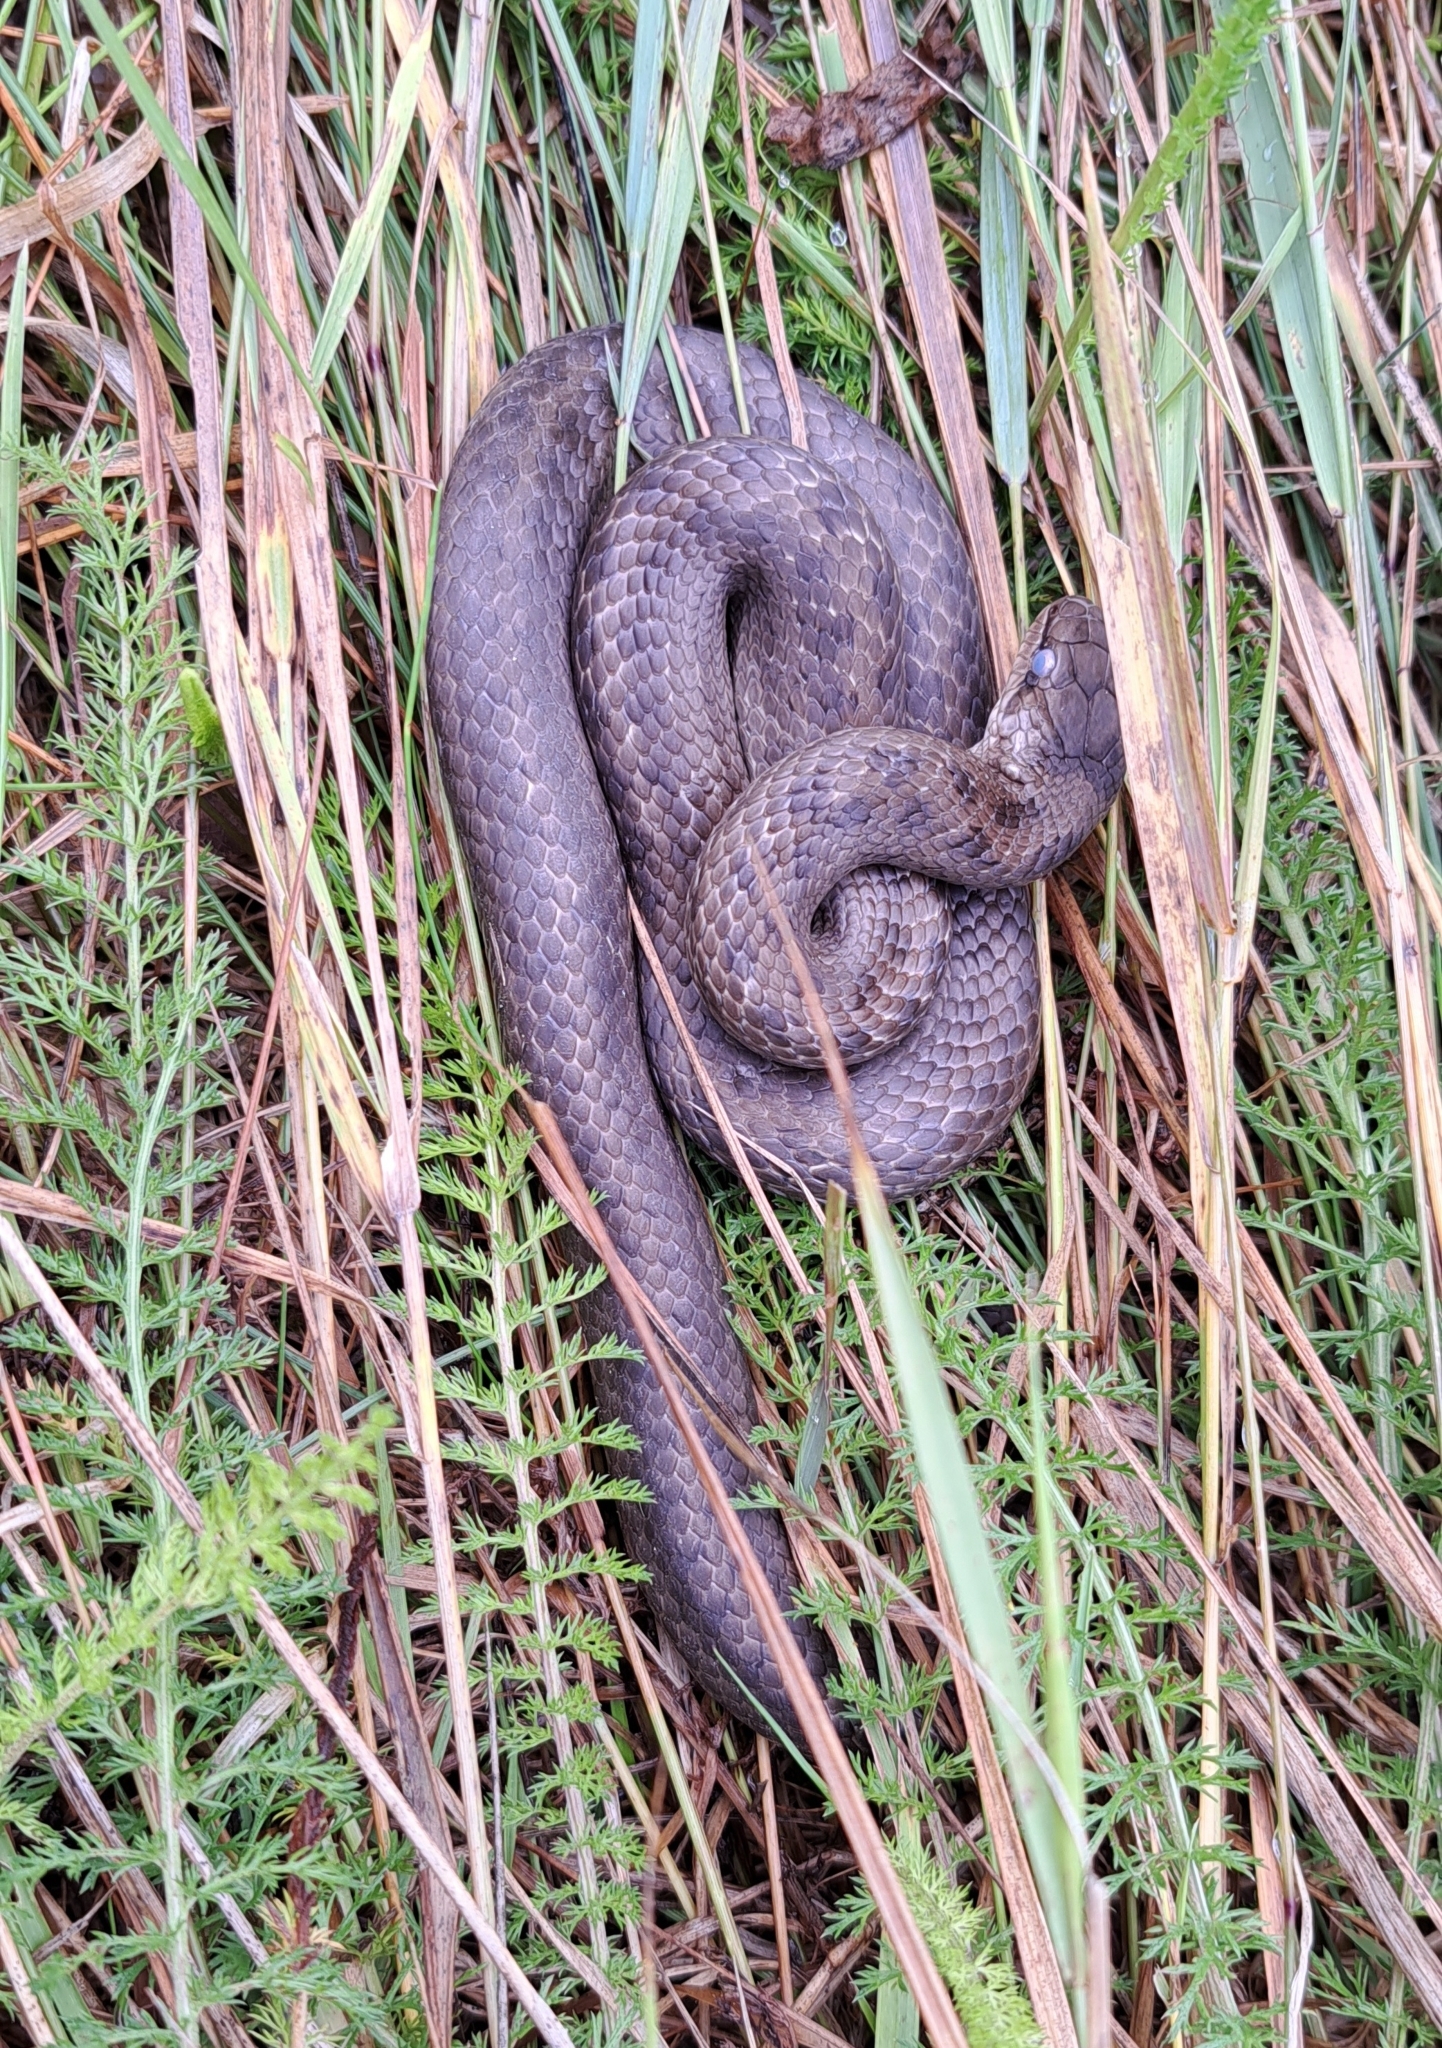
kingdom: Animalia
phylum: Chordata
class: Squamata
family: Colubridae
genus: Coronella
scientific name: Coronella austriaca
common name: Smooth snake
